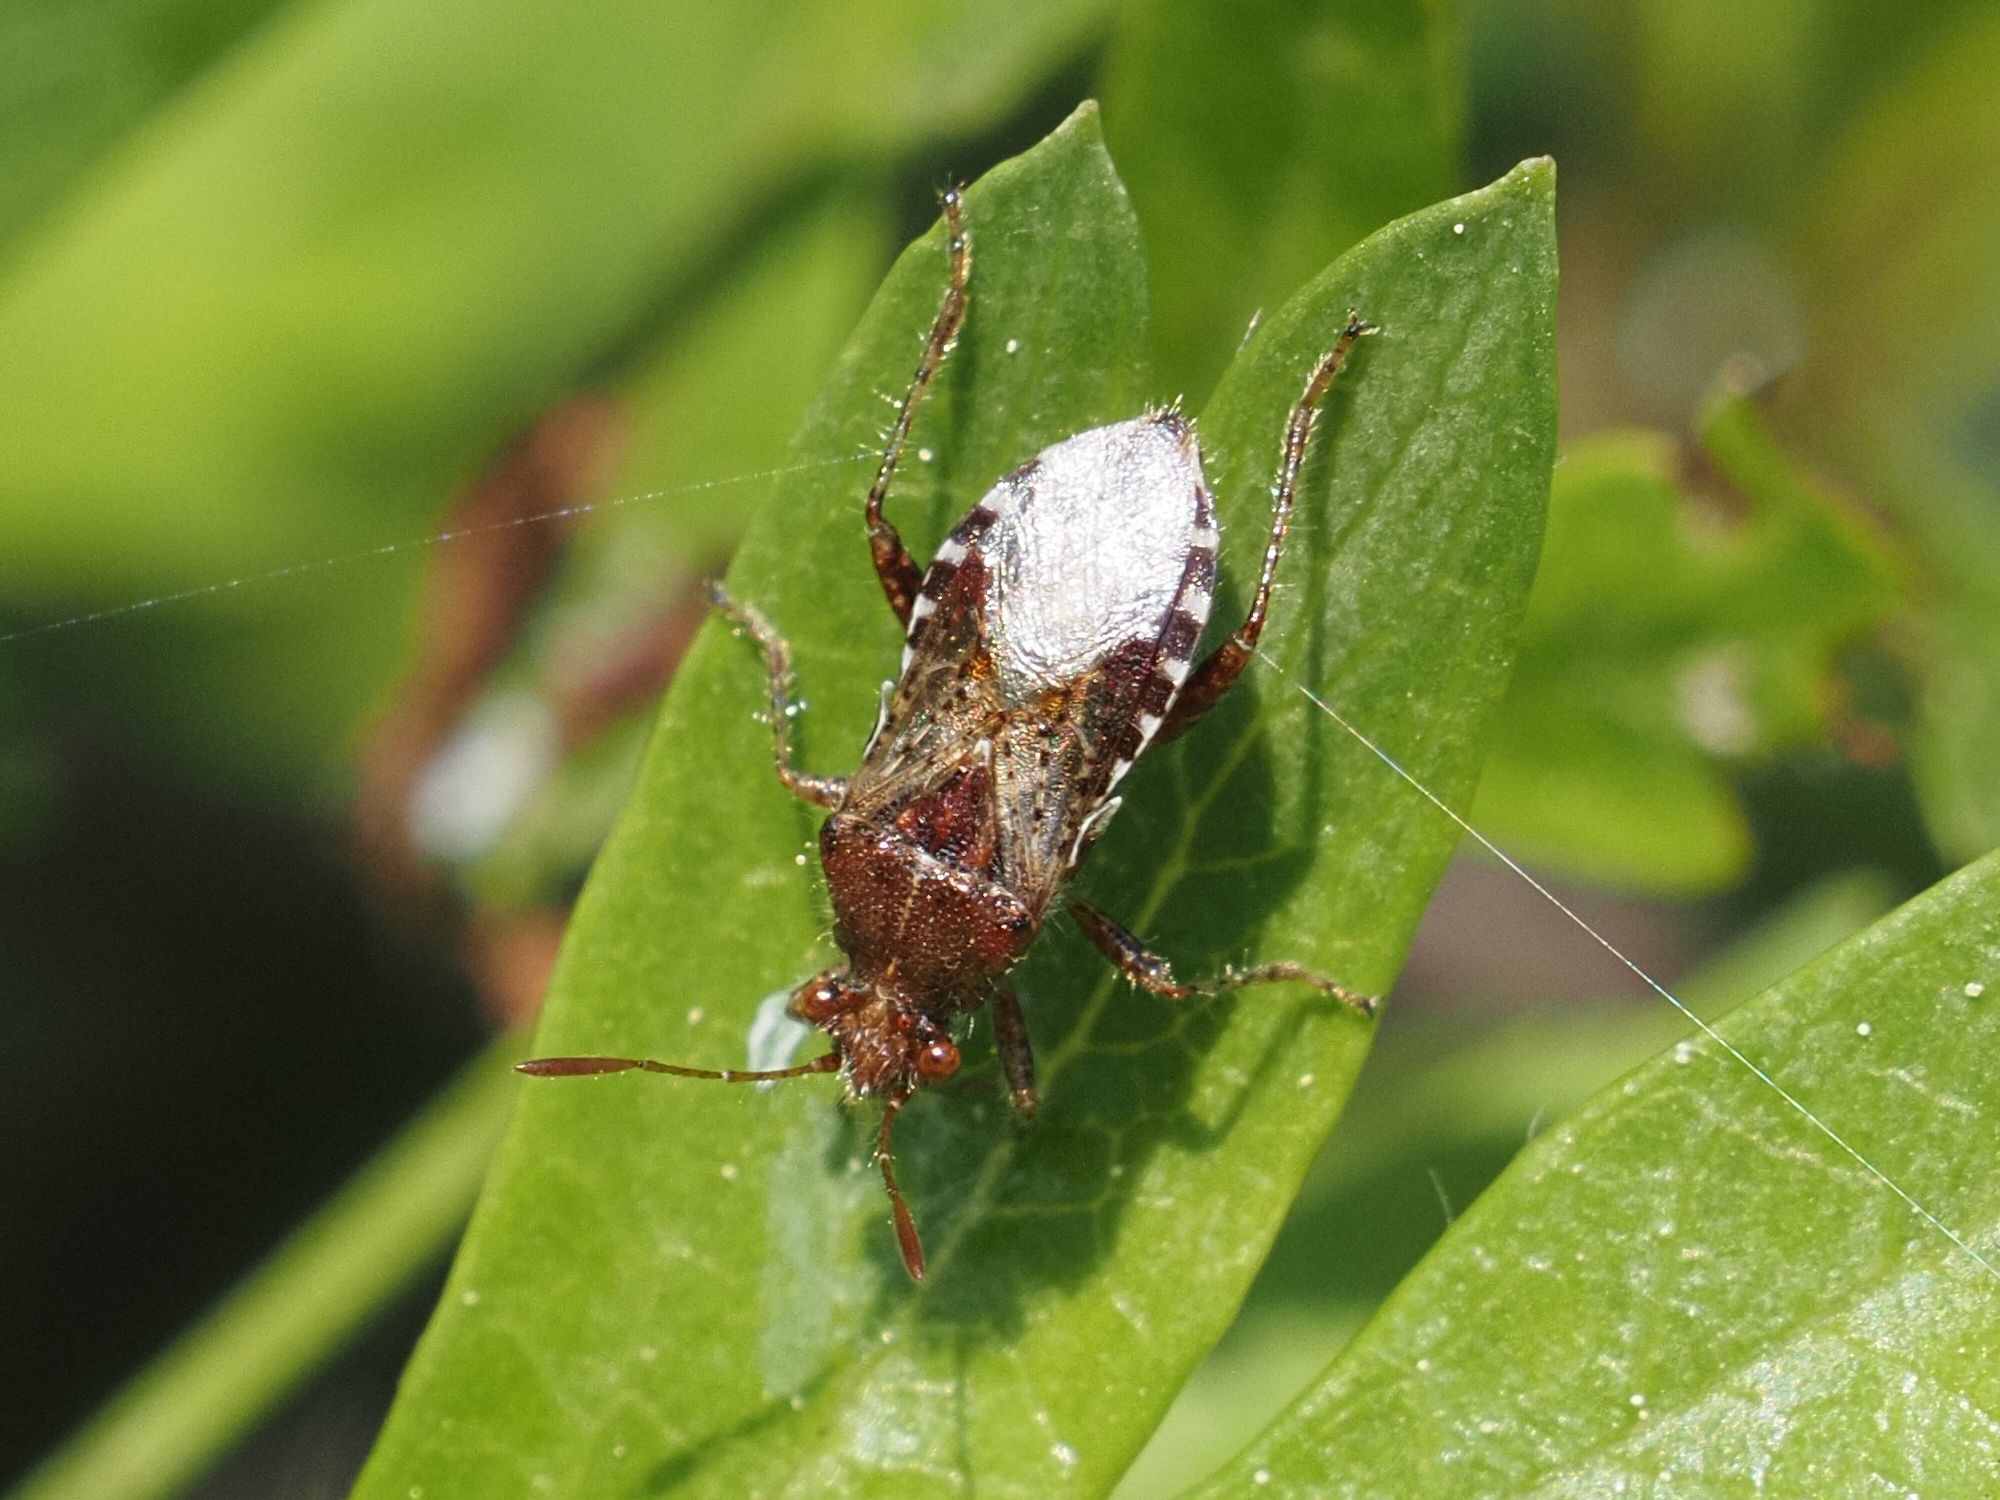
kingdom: Animalia
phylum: Arthropoda
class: Insecta
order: Hemiptera
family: Rhopalidae
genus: Rhopalus
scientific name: Rhopalus subrufus
